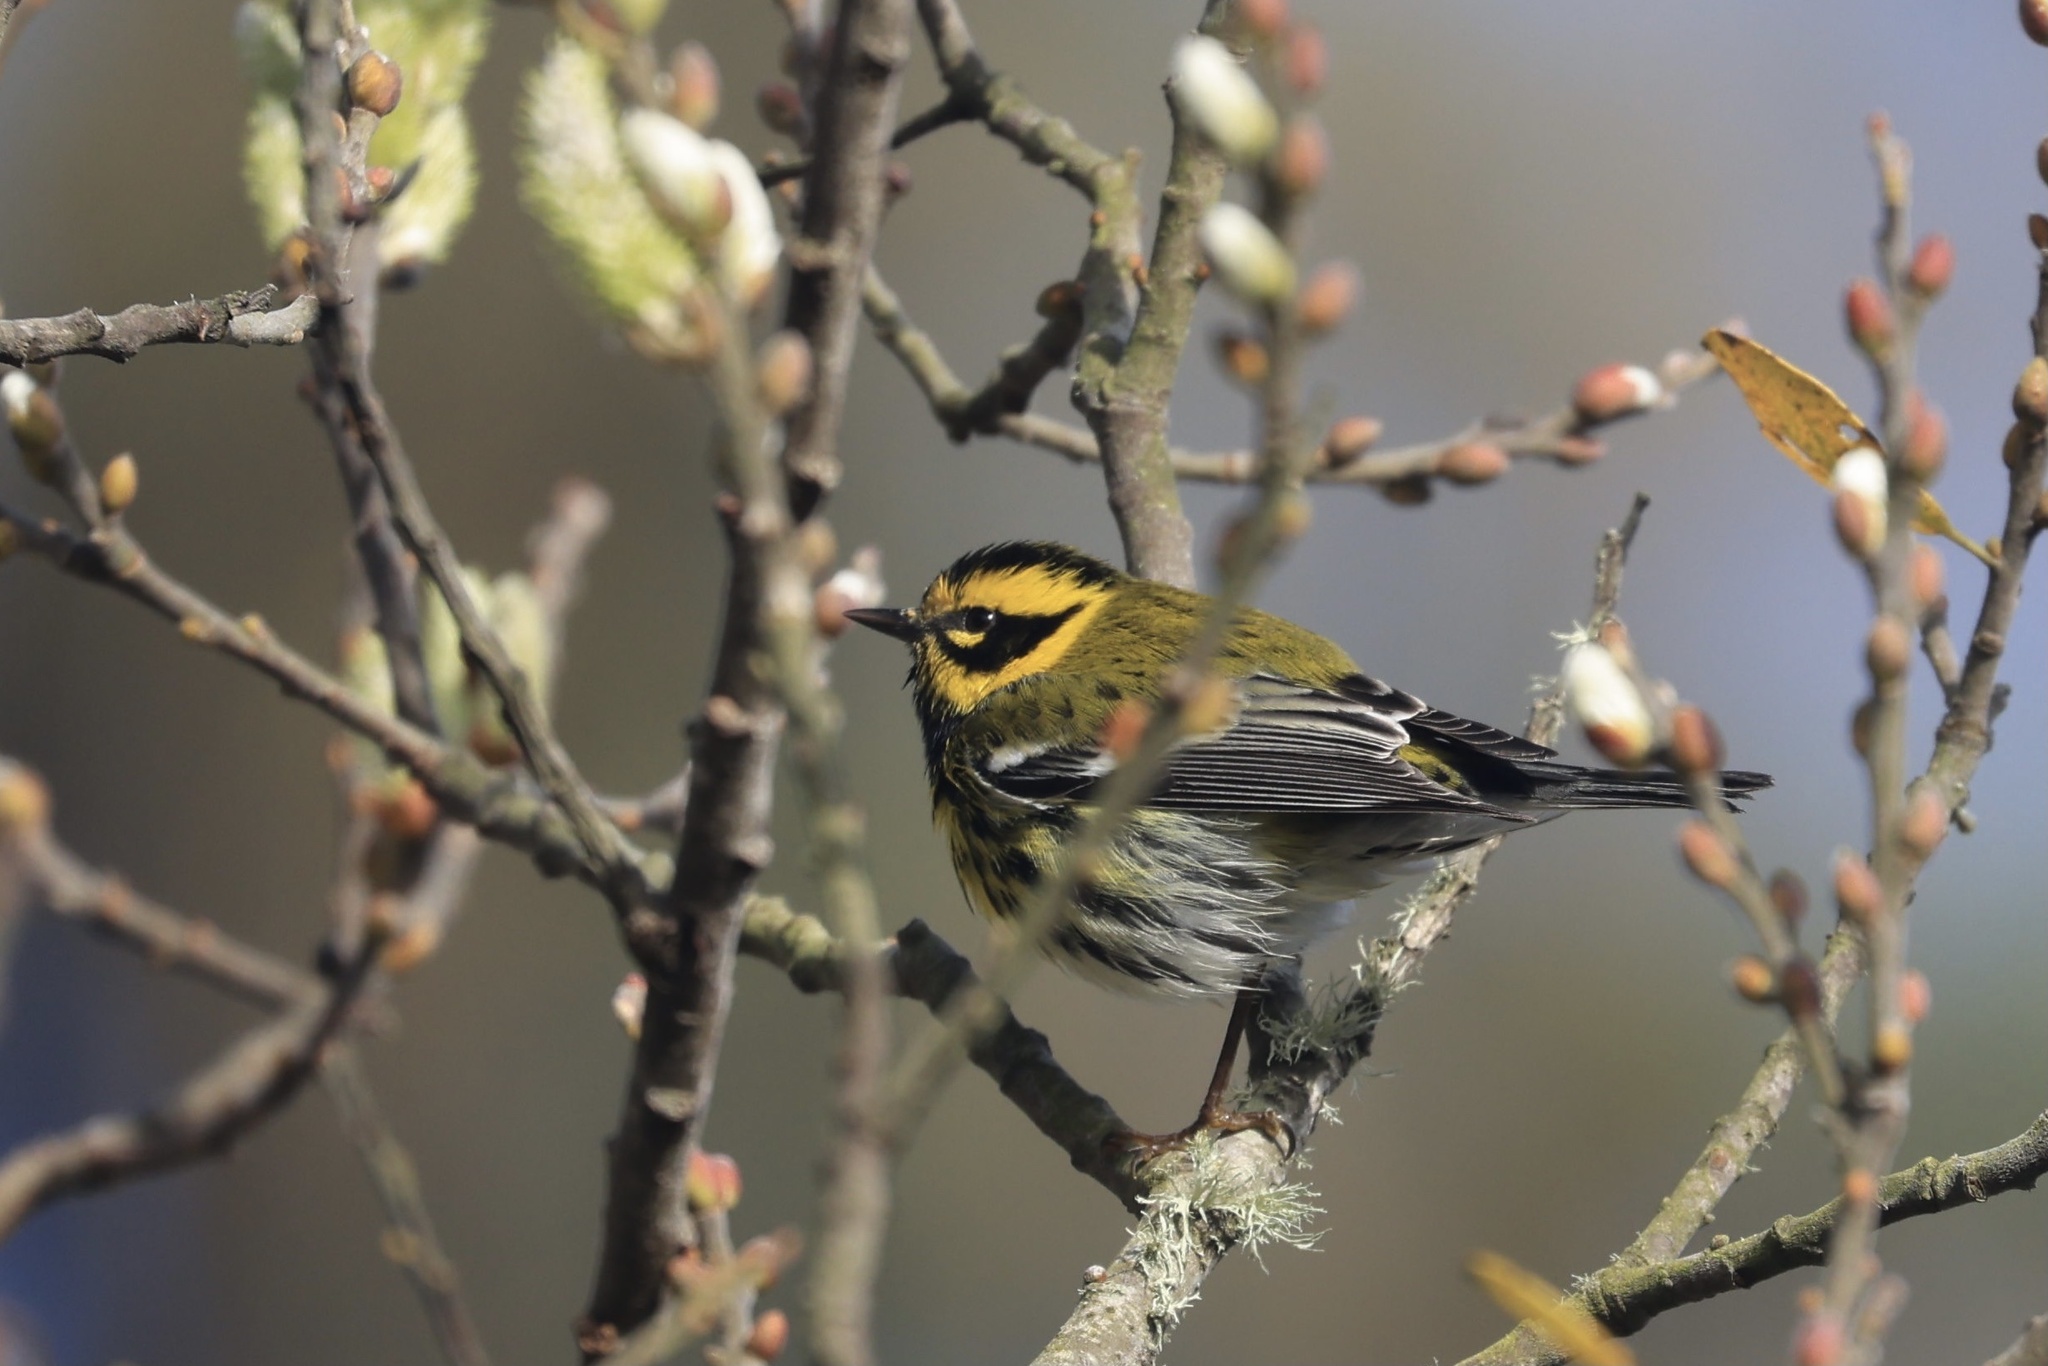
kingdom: Animalia
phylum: Chordata
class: Aves
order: Passeriformes
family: Parulidae
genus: Setophaga
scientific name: Setophaga townsendi
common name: Townsend's warbler
